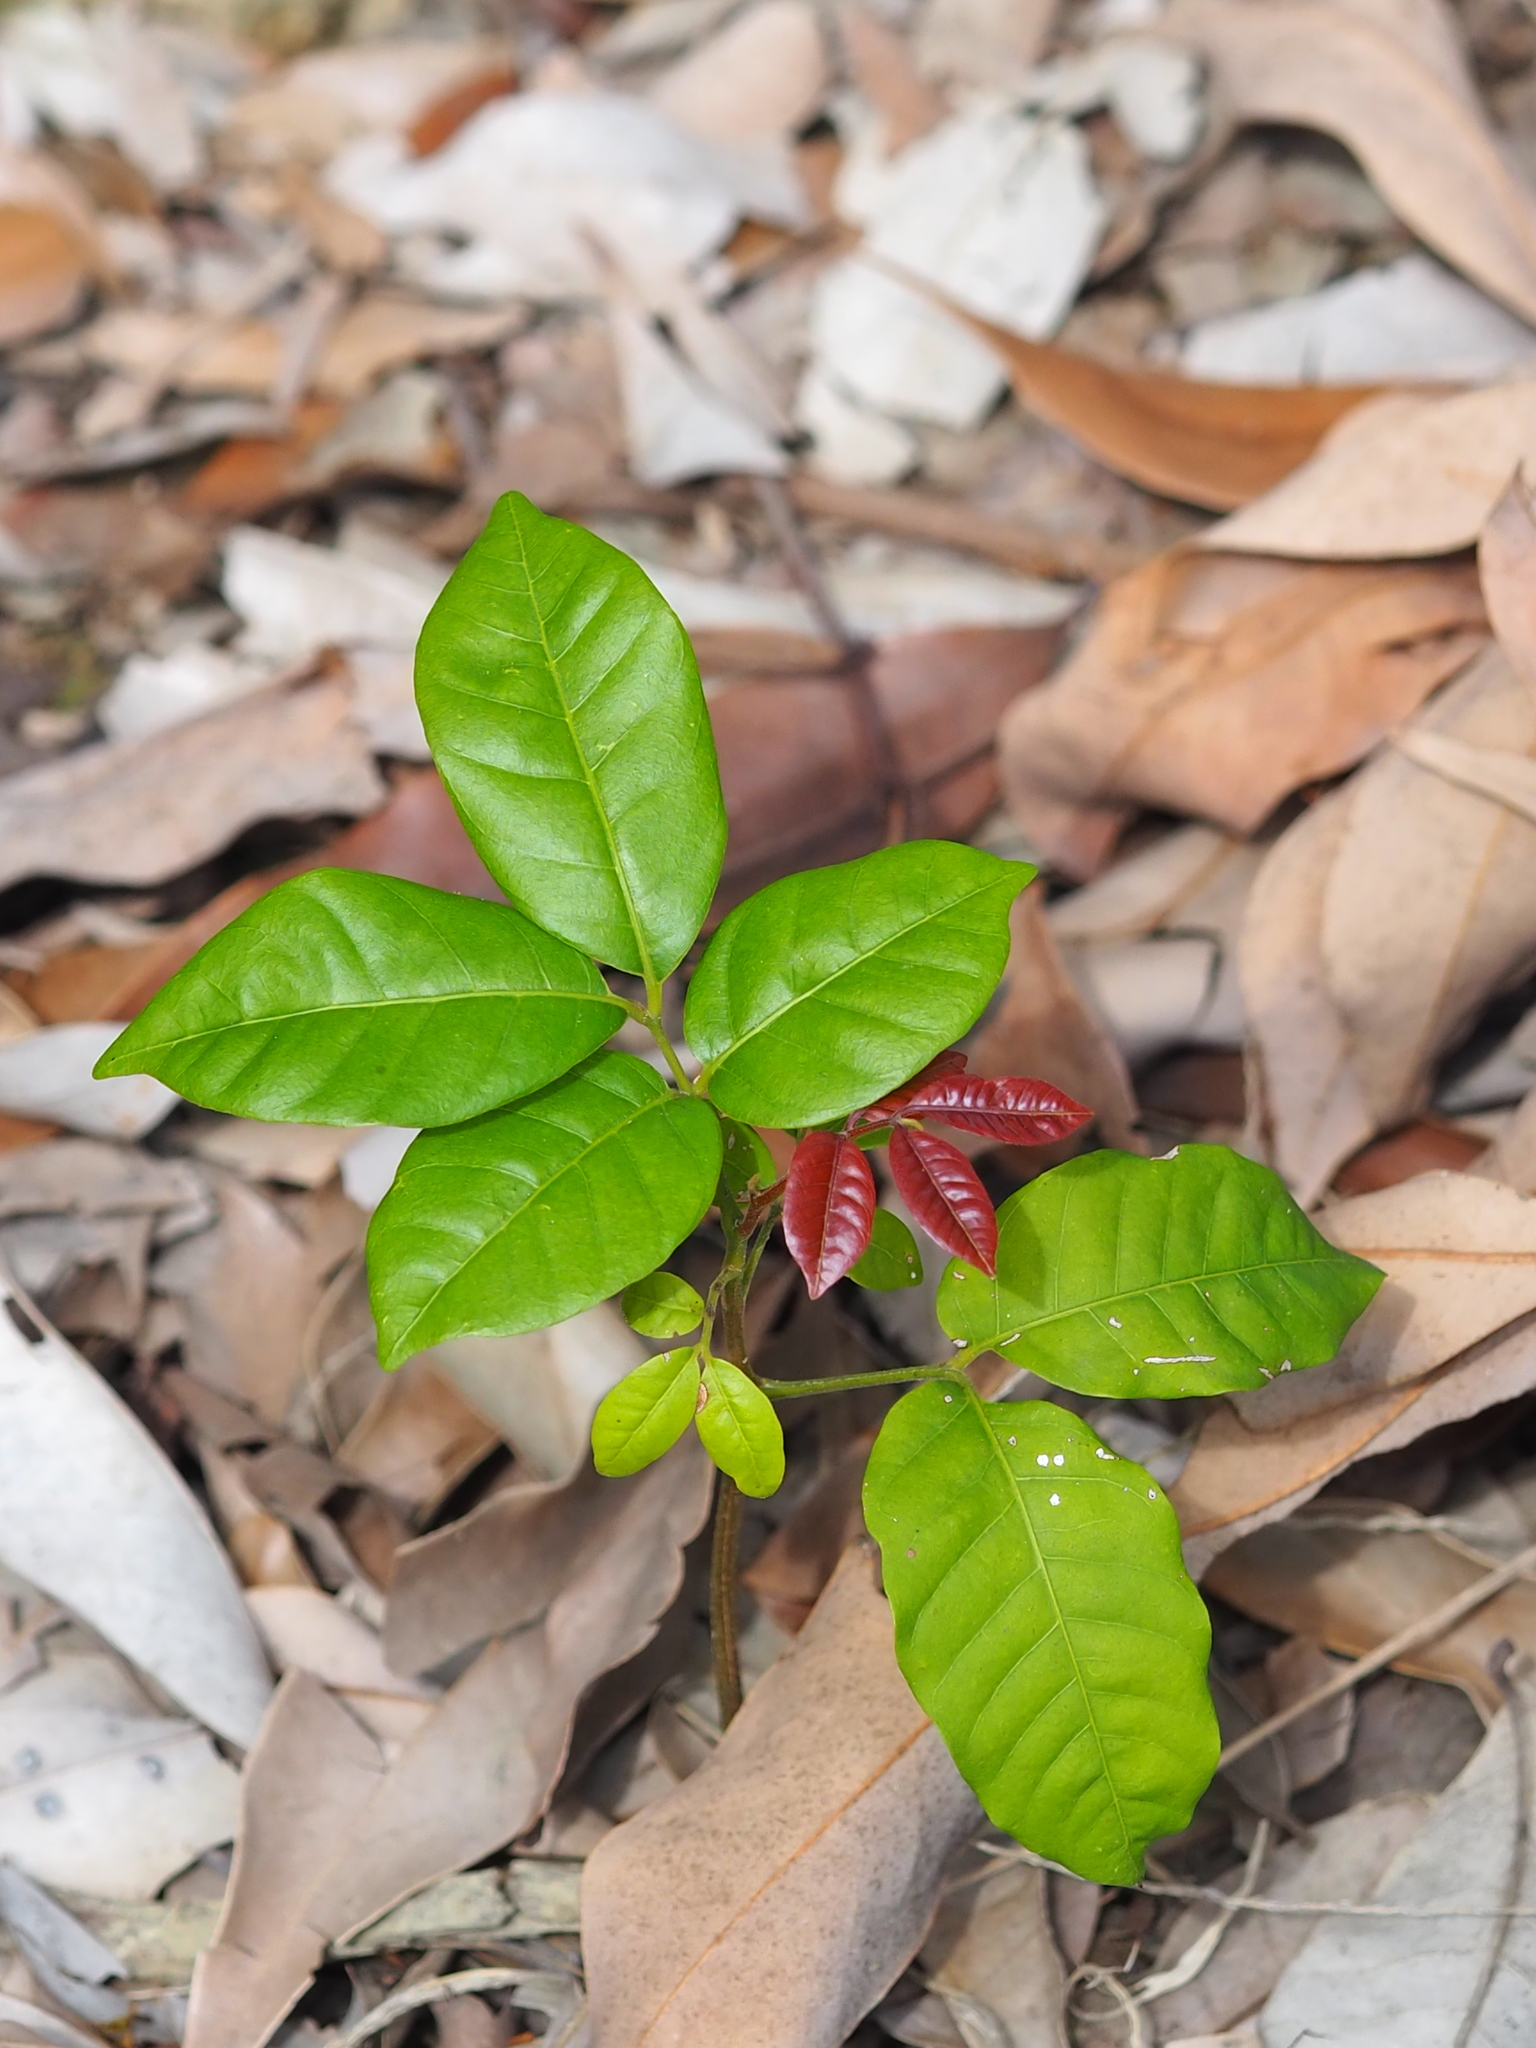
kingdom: Plantae
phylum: Tracheophyta
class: Magnoliopsida
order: Sapindales
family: Sapindaceae
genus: Dimocarpus
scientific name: Dimocarpus longan
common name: Longan
